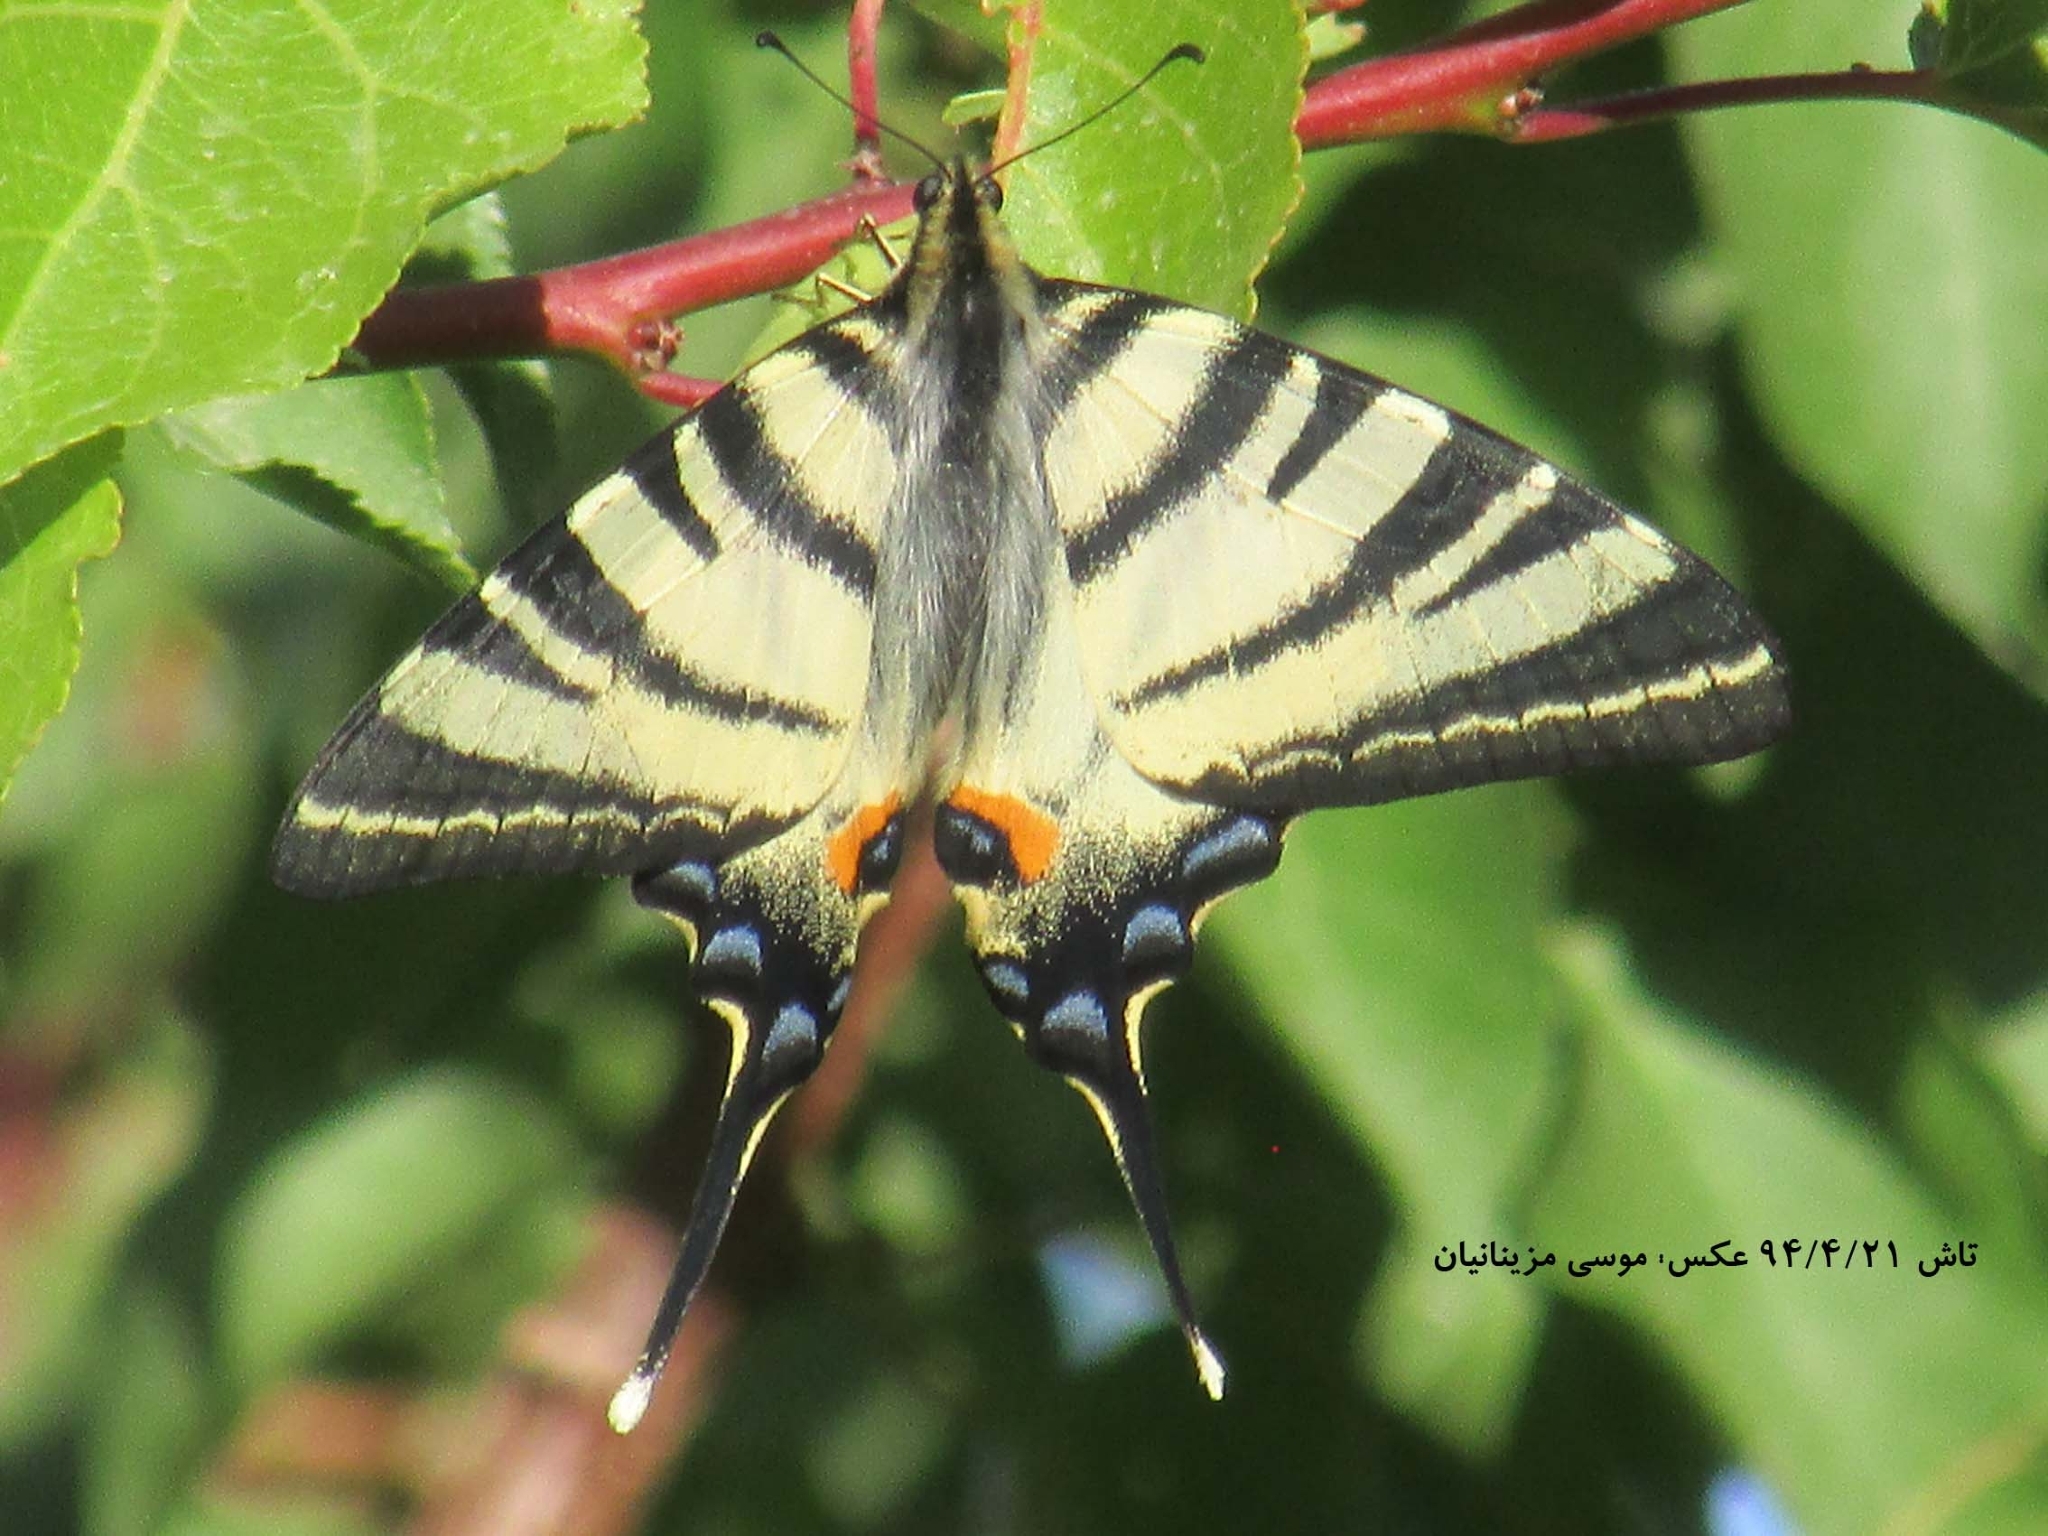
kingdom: Animalia
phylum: Arthropoda
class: Insecta
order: Lepidoptera
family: Papilionidae
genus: Iphiclides
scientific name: Iphiclides podalirius
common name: Scarce swallowtail
